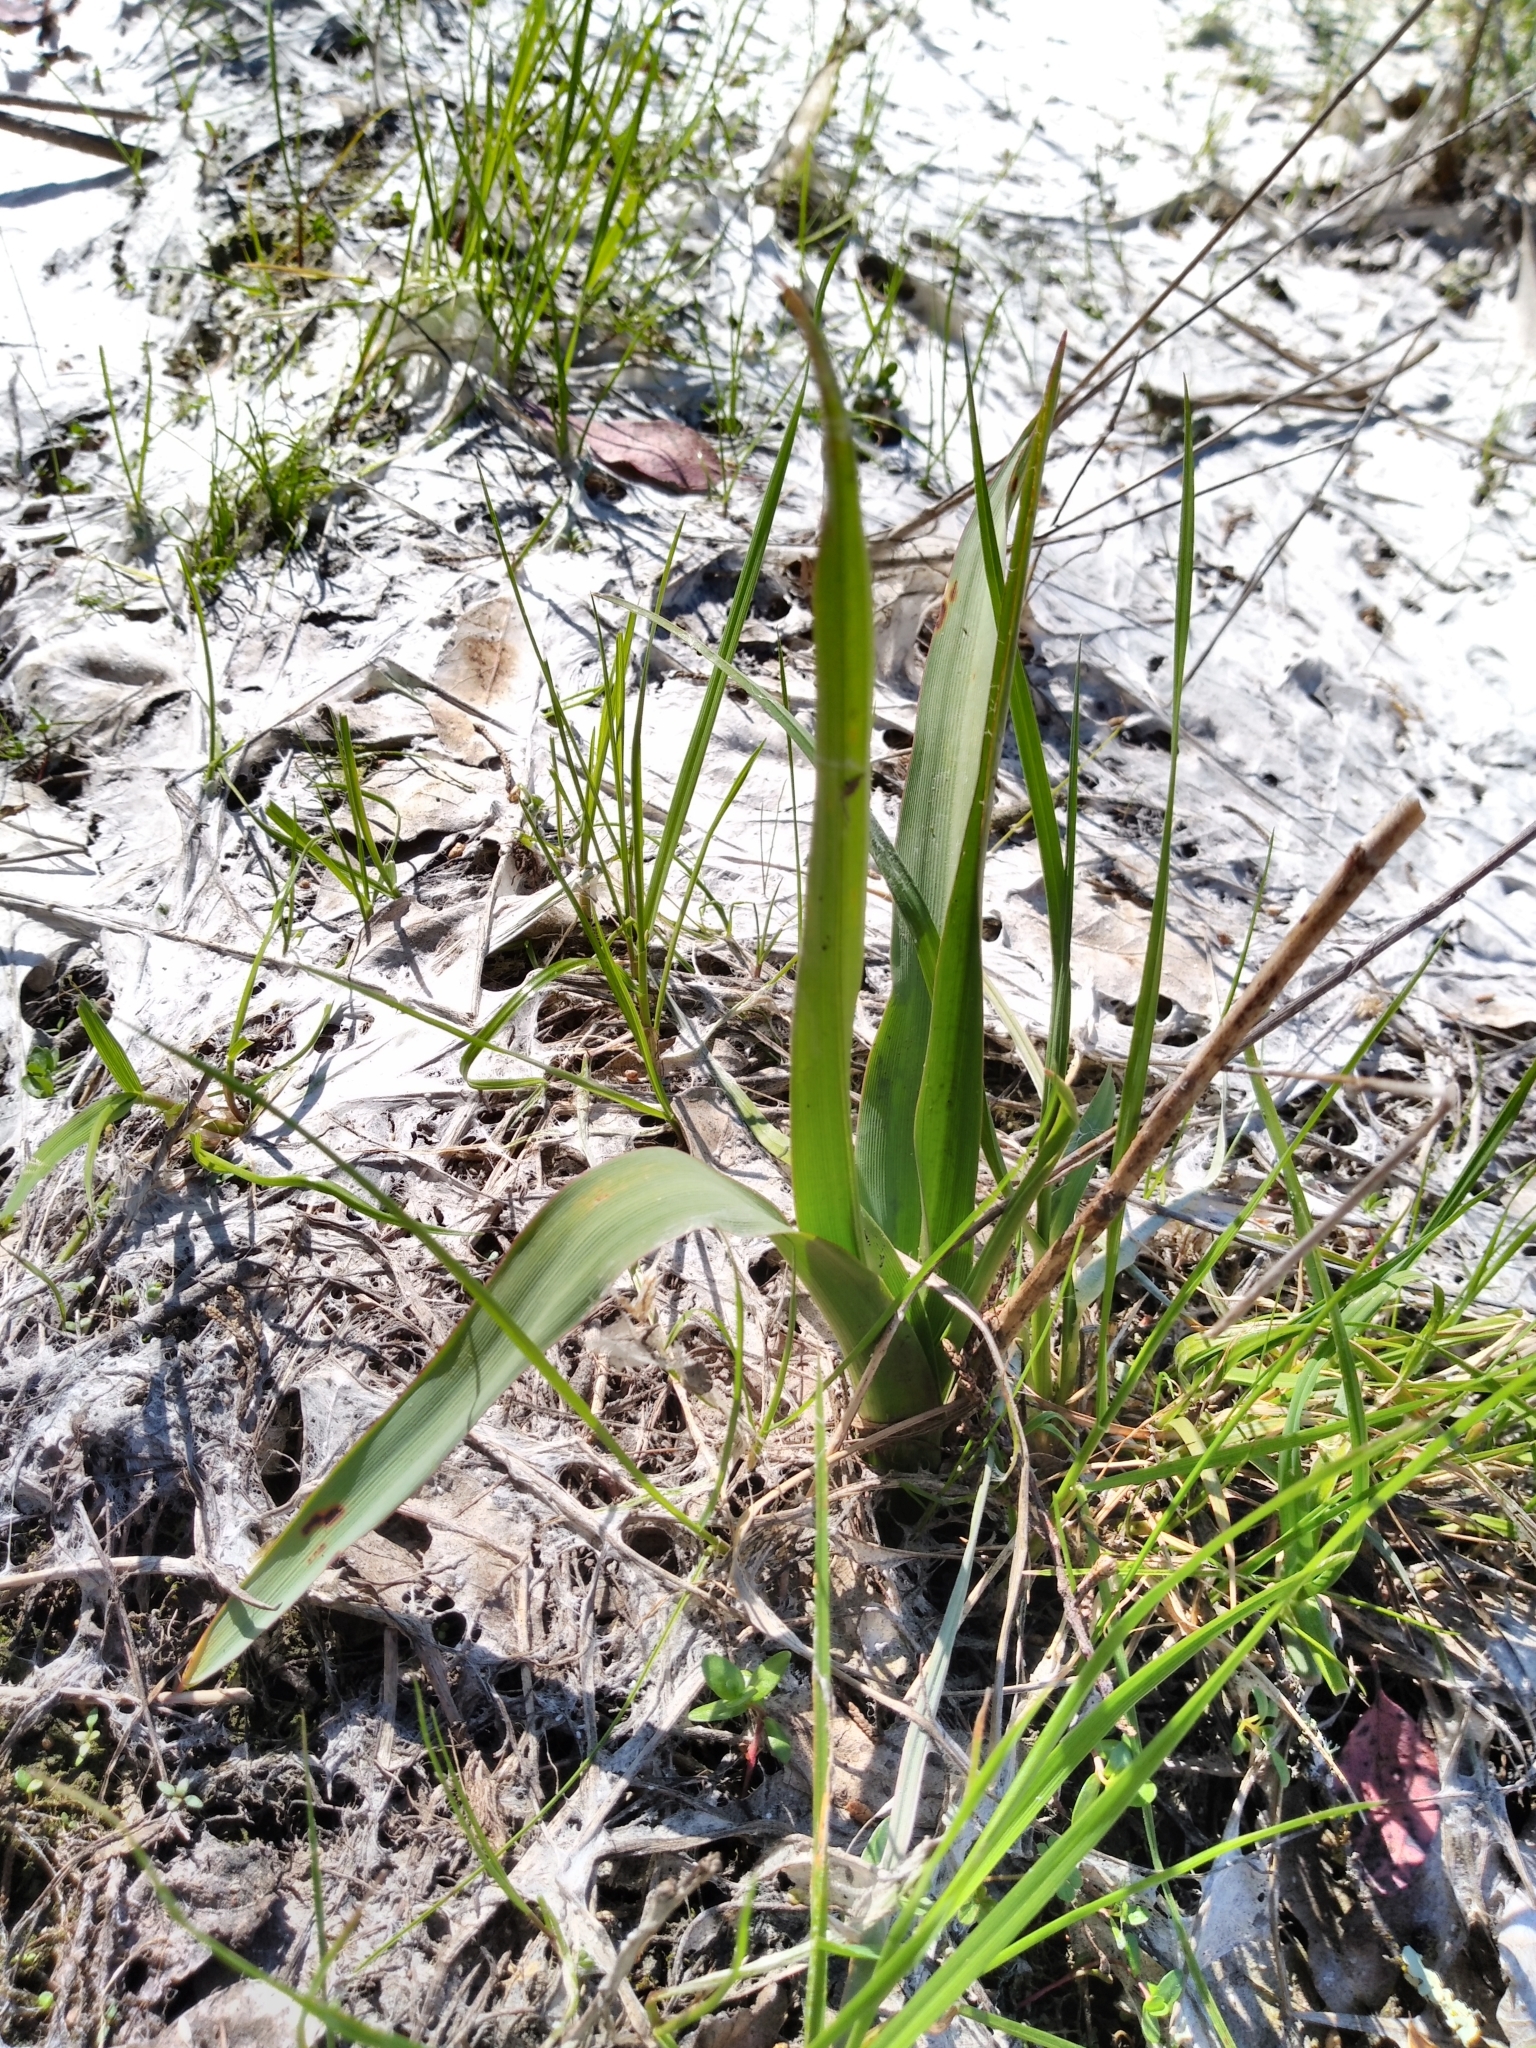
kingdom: Plantae
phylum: Tracheophyta
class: Liliopsida
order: Asparagales
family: Asparagaceae
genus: Chlorogalum
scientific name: Chlorogalum pomeridianum
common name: Amole
